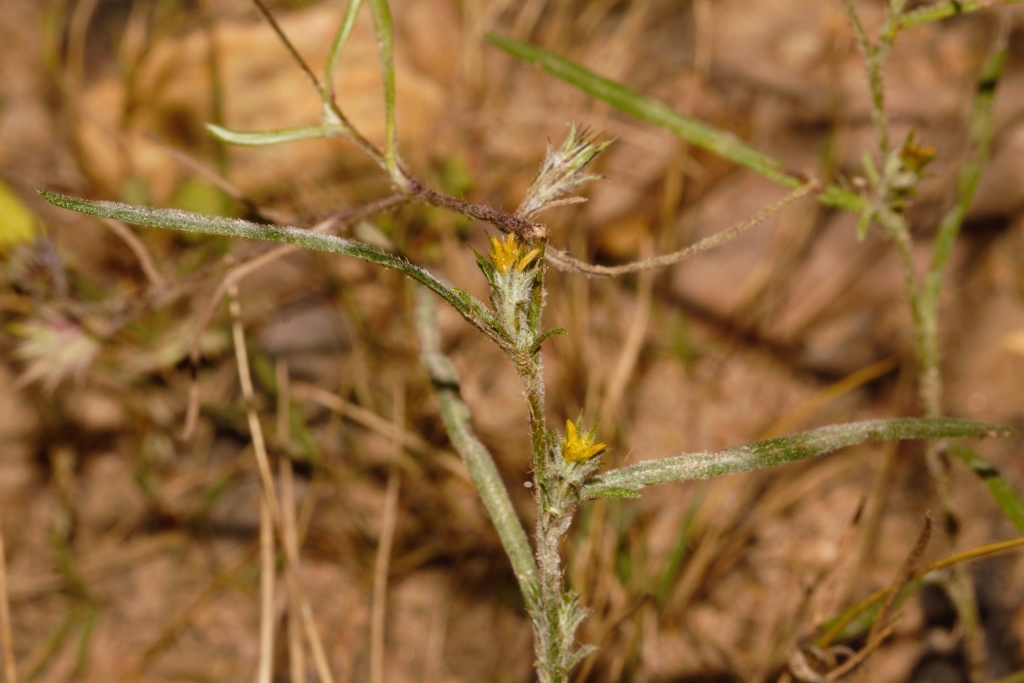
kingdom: Plantae
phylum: Tracheophyta
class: Magnoliopsida
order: Asterales
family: Asteraceae
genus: Gorteria
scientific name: Gorteria gracilis
